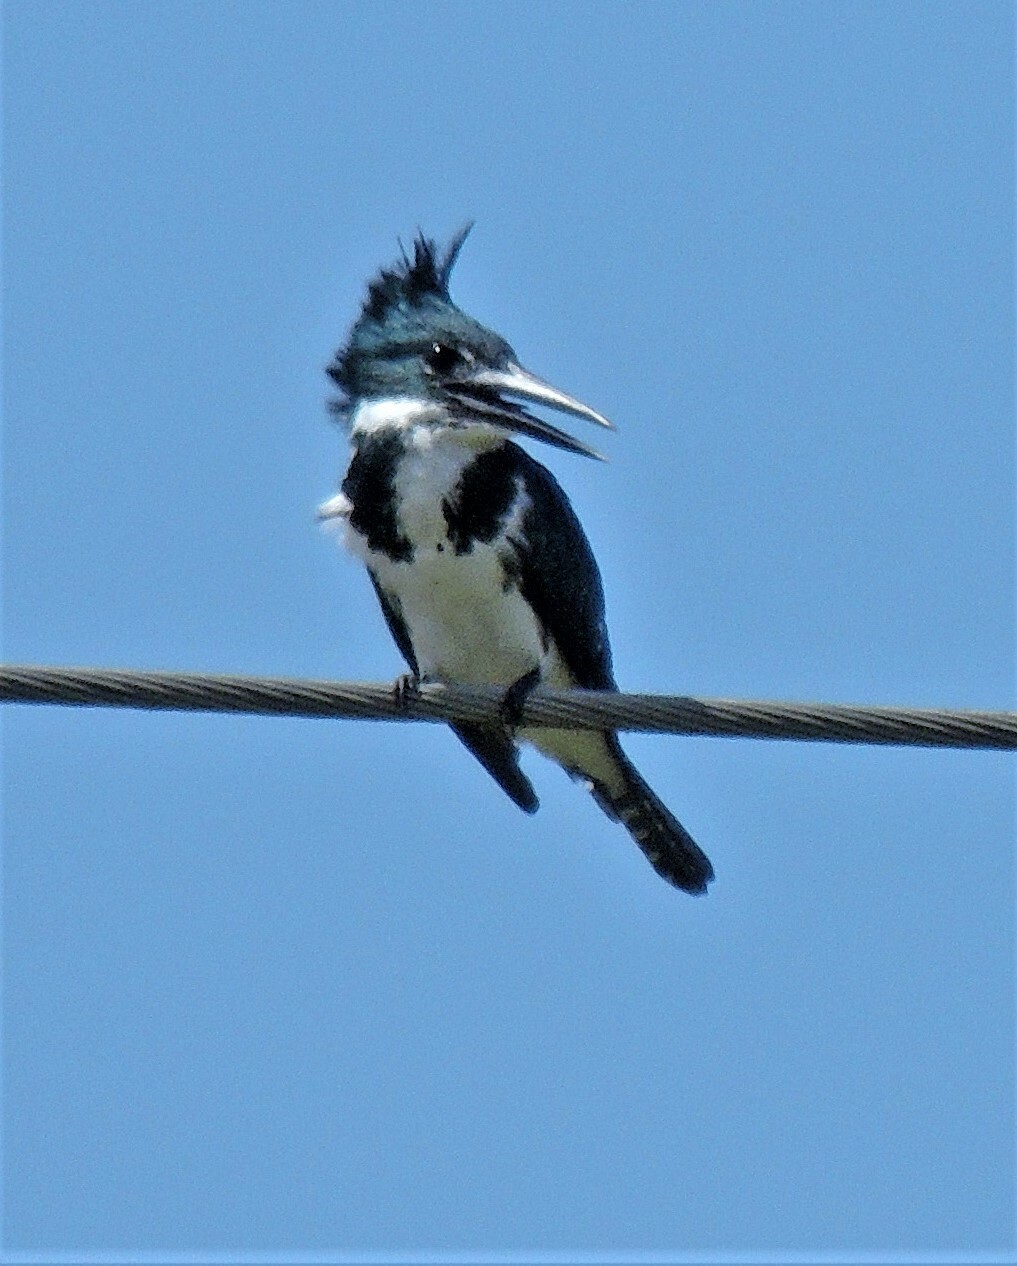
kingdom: Animalia
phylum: Chordata
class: Aves
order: Coraciiformes
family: Alcedinidae
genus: Chloroceryle
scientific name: Chloroceryle amazona
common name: Amazon kingfisher
